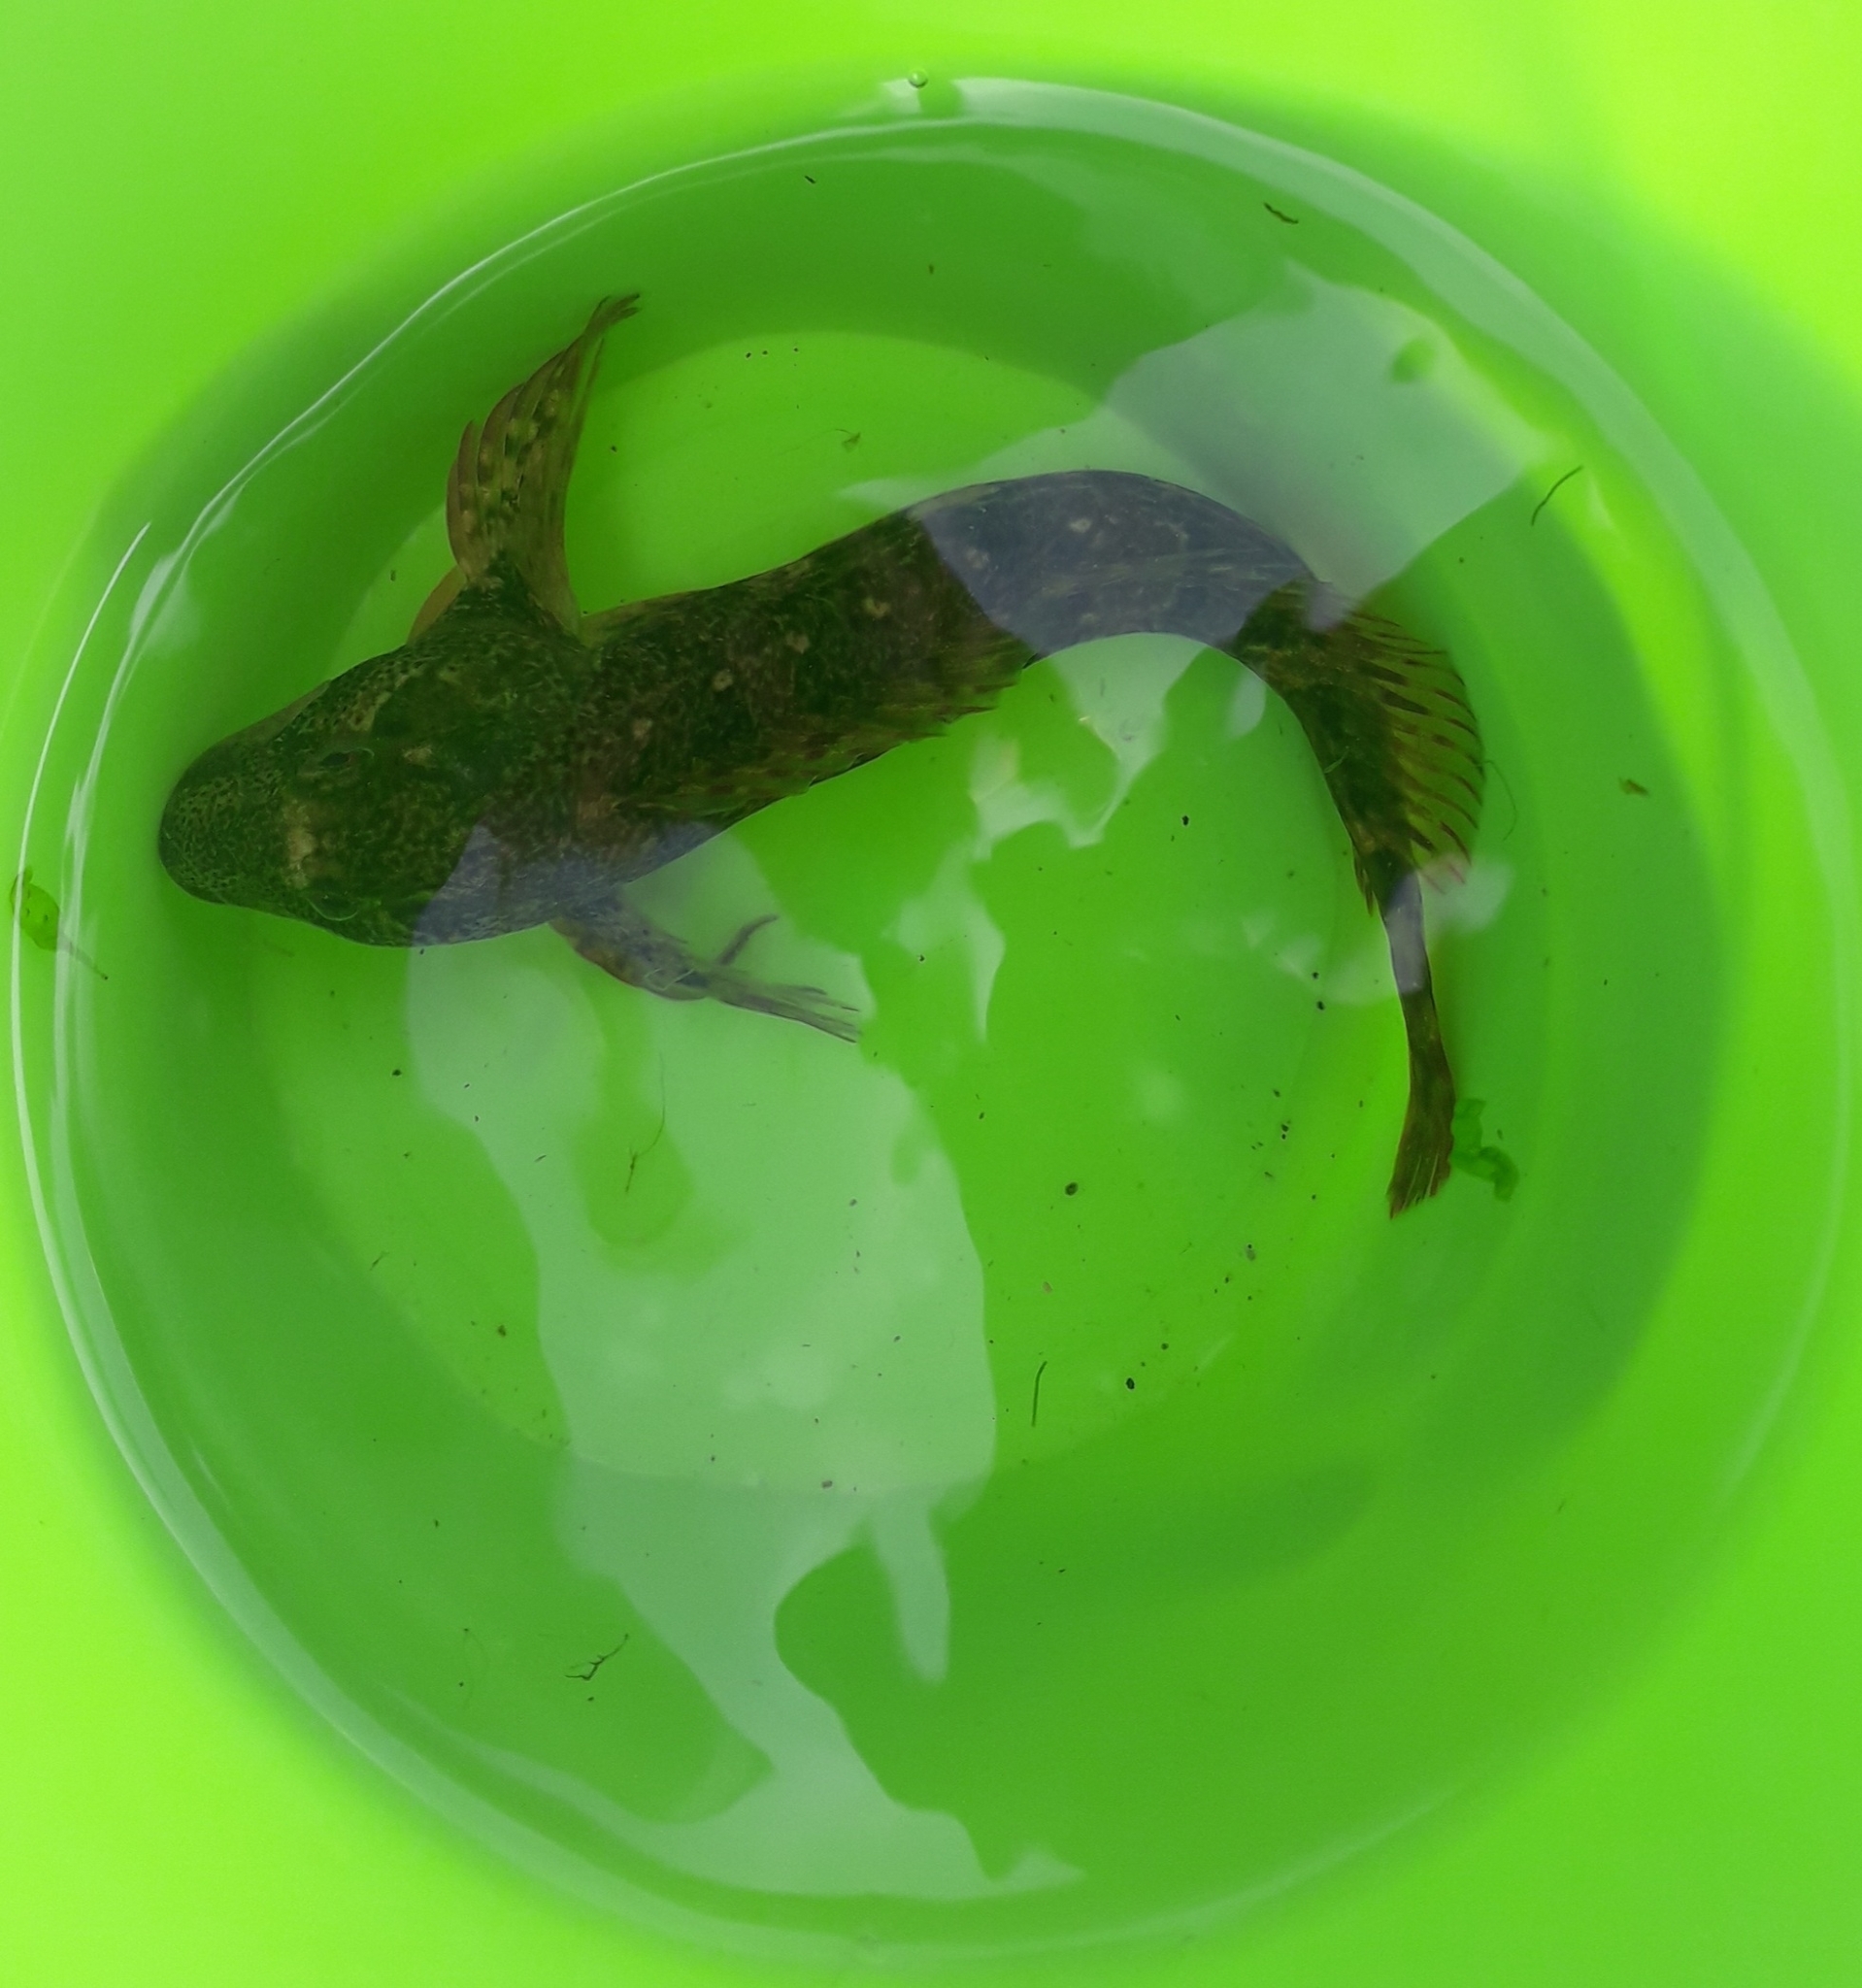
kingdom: Animalia
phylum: Chordata
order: Perciformes
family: Blenniidae
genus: Lipophrys
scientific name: Lipophrys pholis
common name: Shanny
